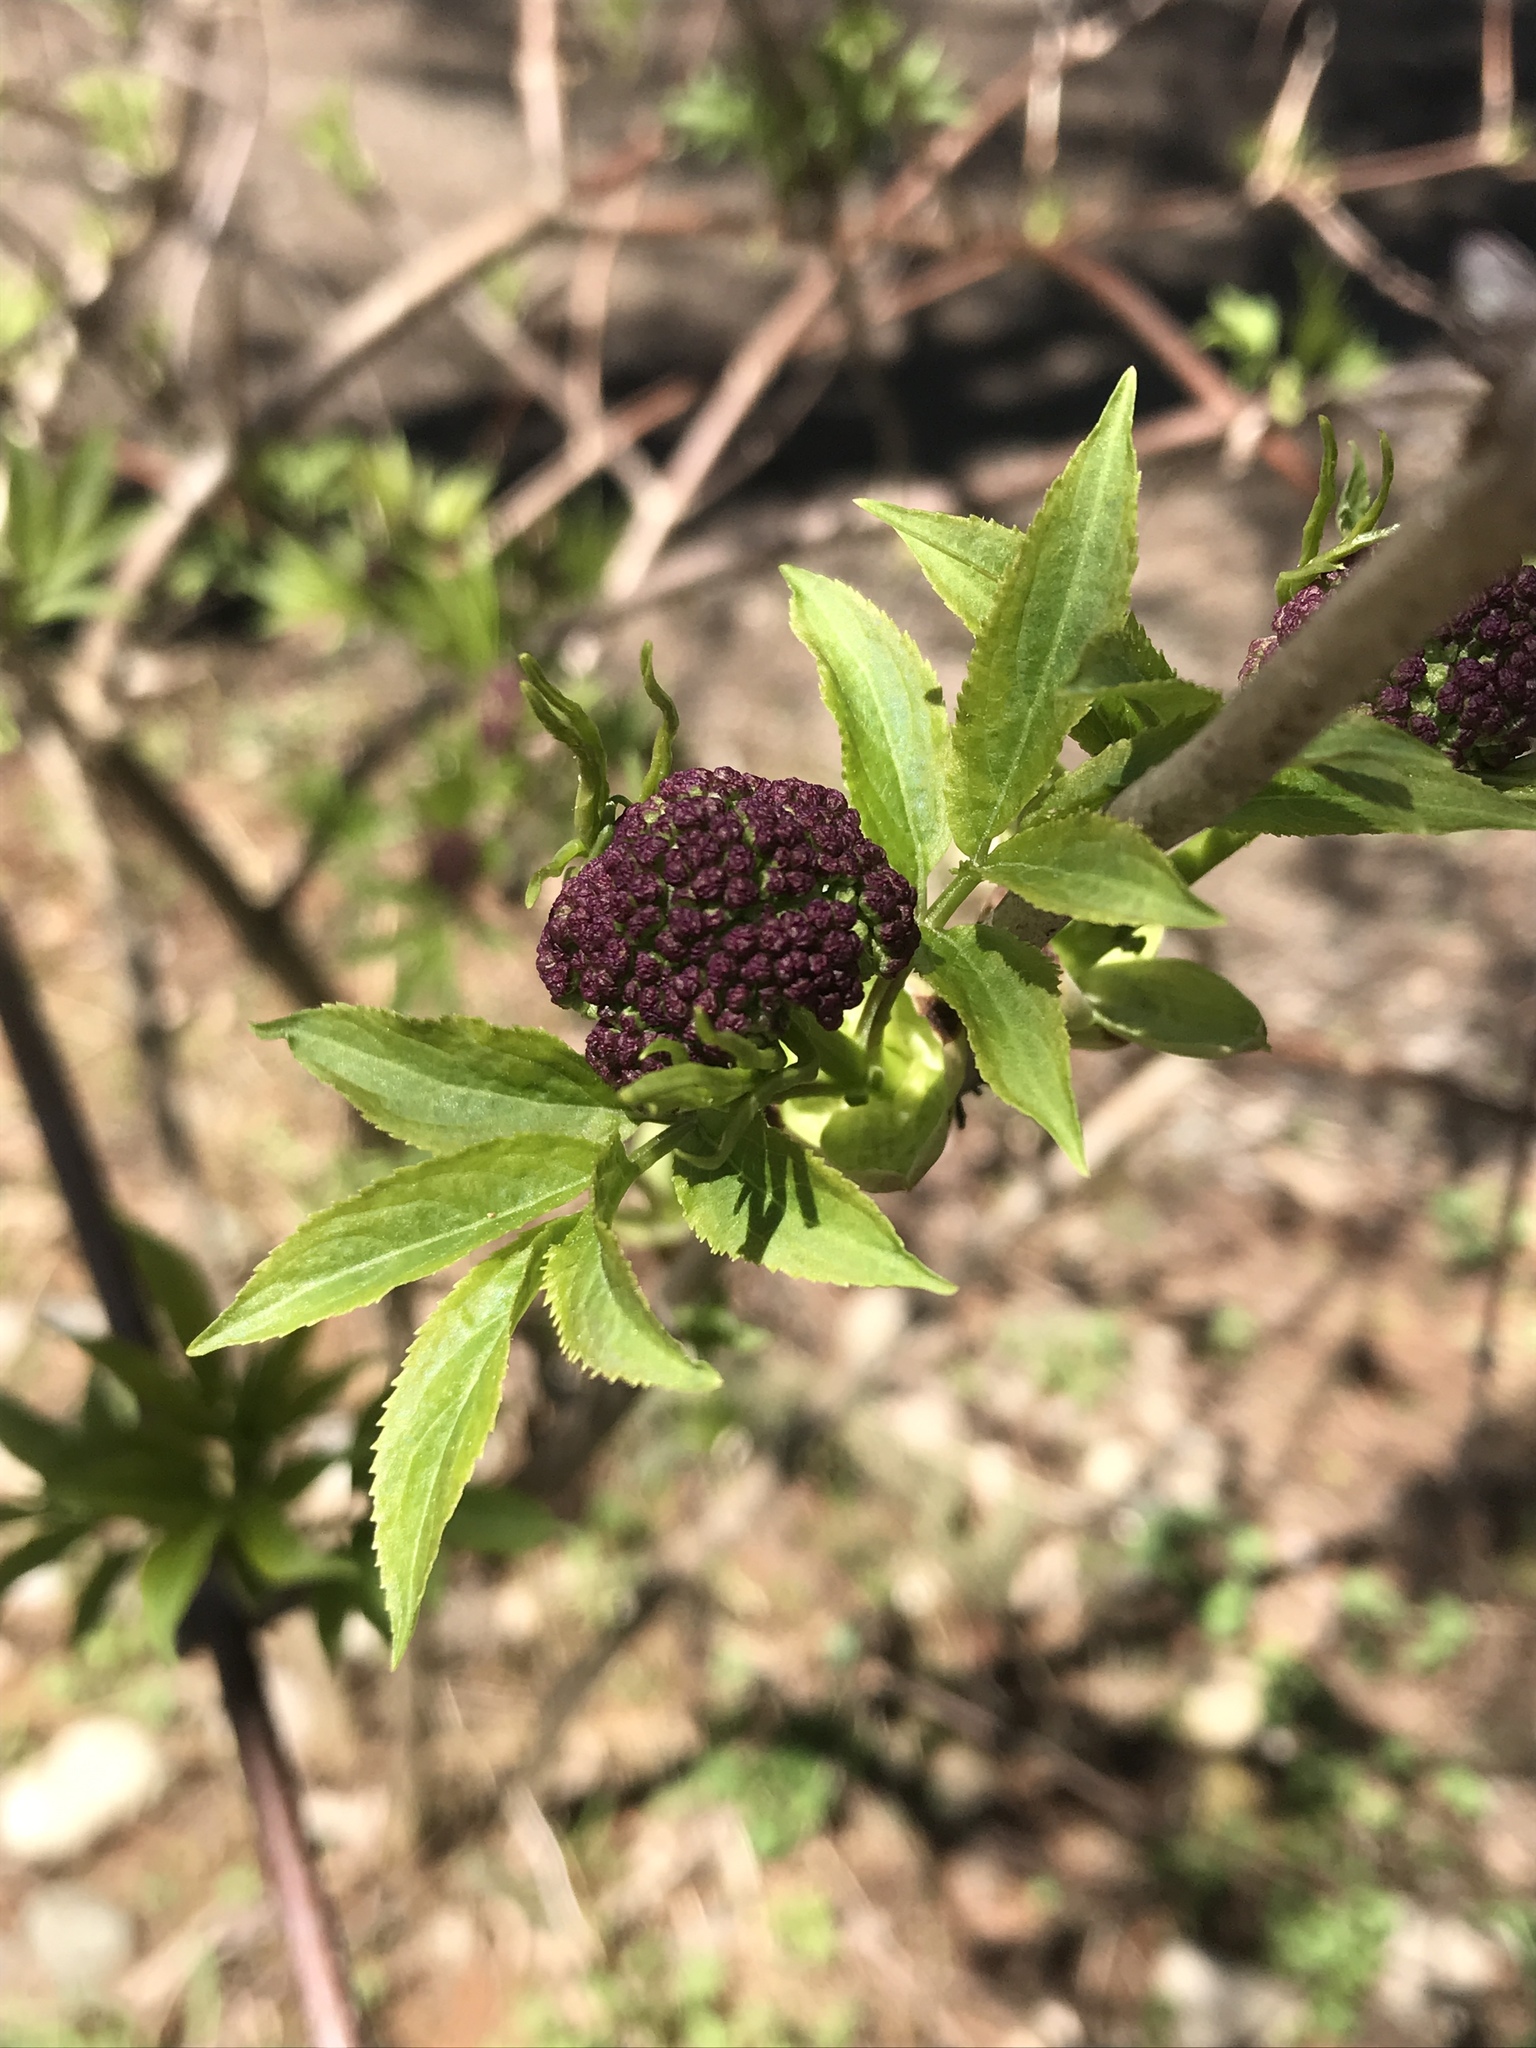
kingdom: Plantae
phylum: Tracheophyta
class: Magnoliopsida
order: Dipsacales
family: Viburnaceae
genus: Sambucus
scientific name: Sambucus racemosa
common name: Red-berried elder
